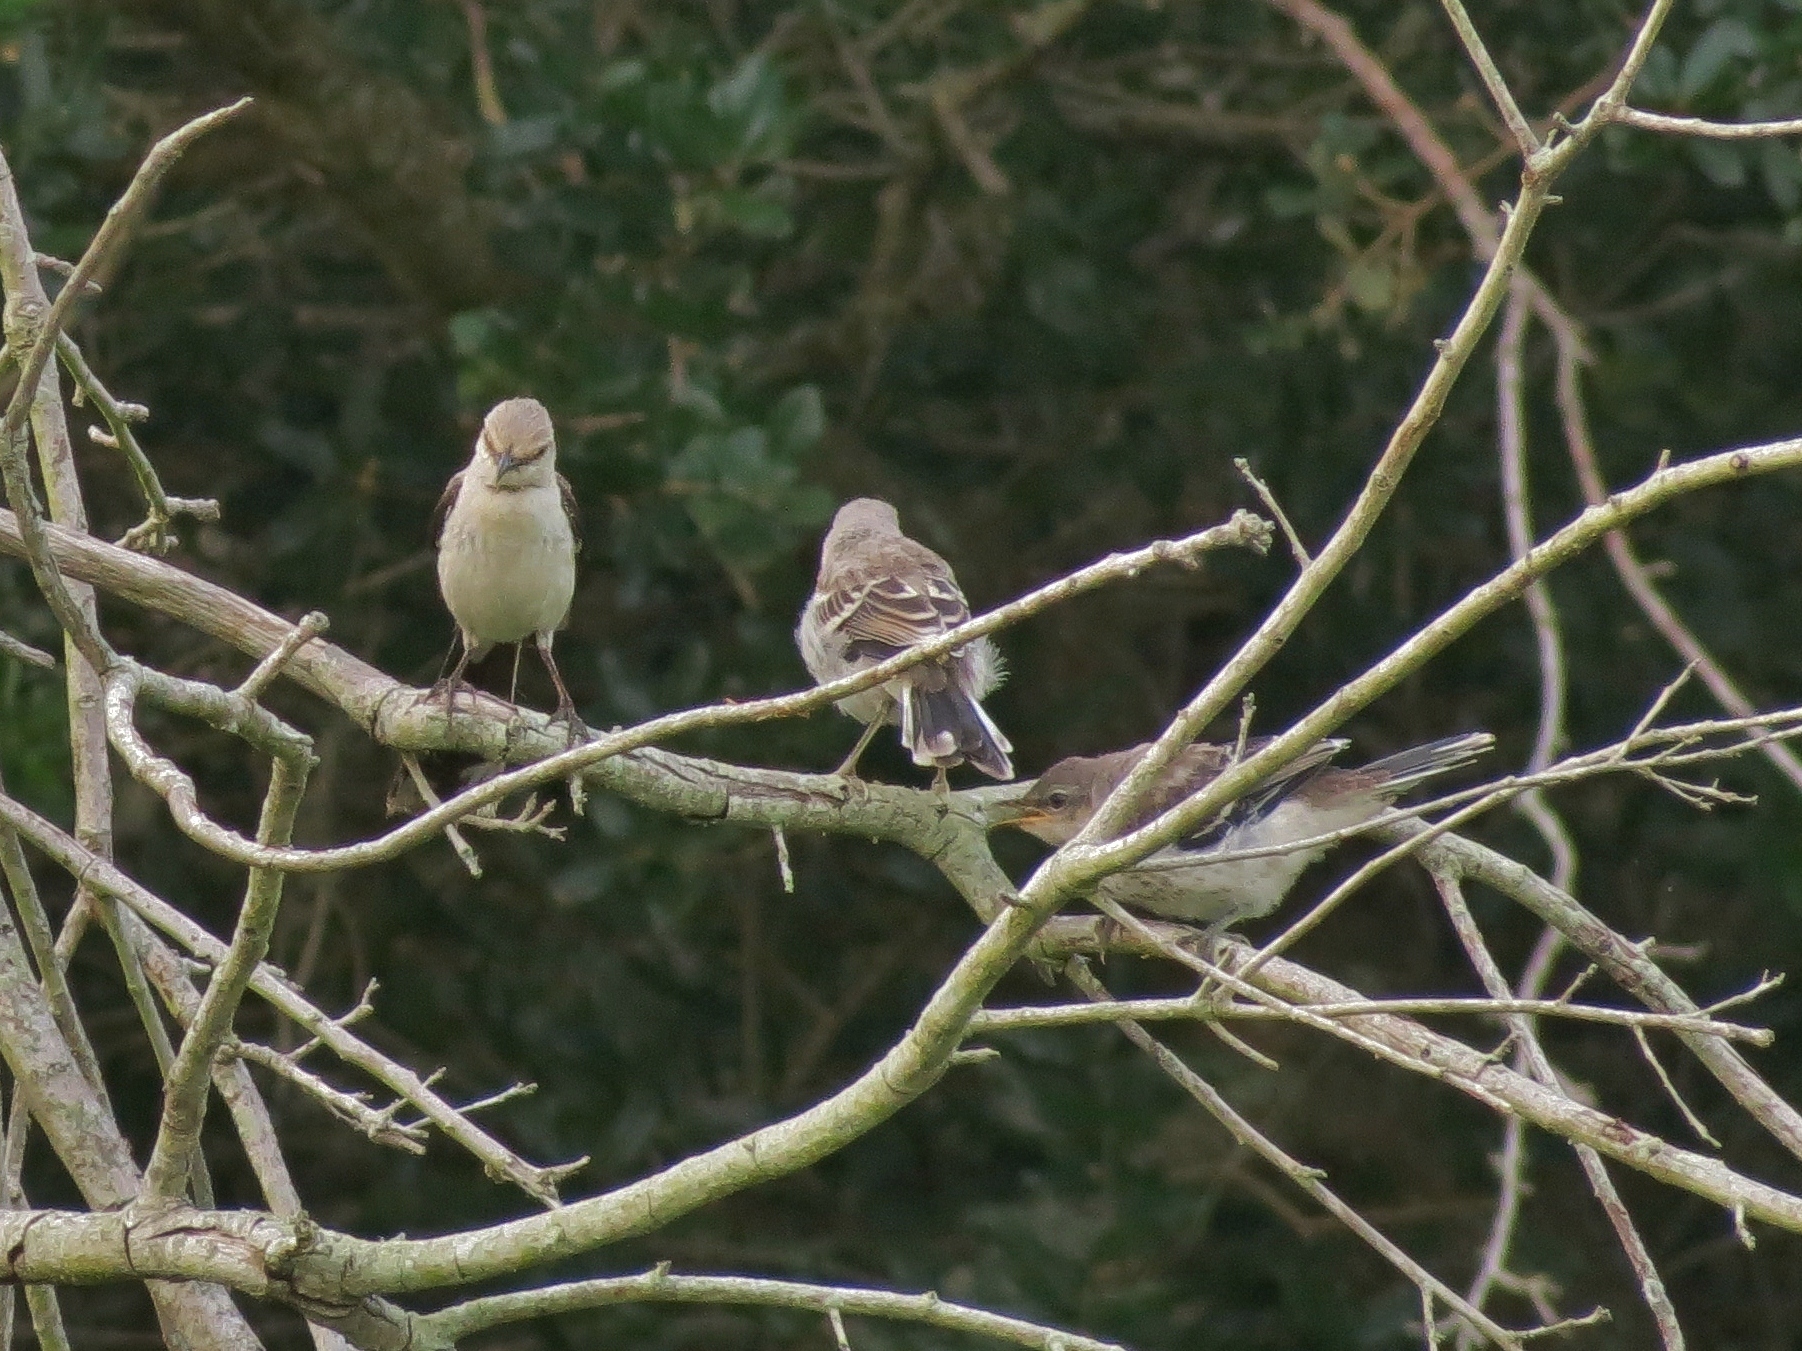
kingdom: Animalia
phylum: Chordata
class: Aves
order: Passeriformes
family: Mimidae
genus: Mimus
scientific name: Mimus gilvus
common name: Tropical mockingbird
